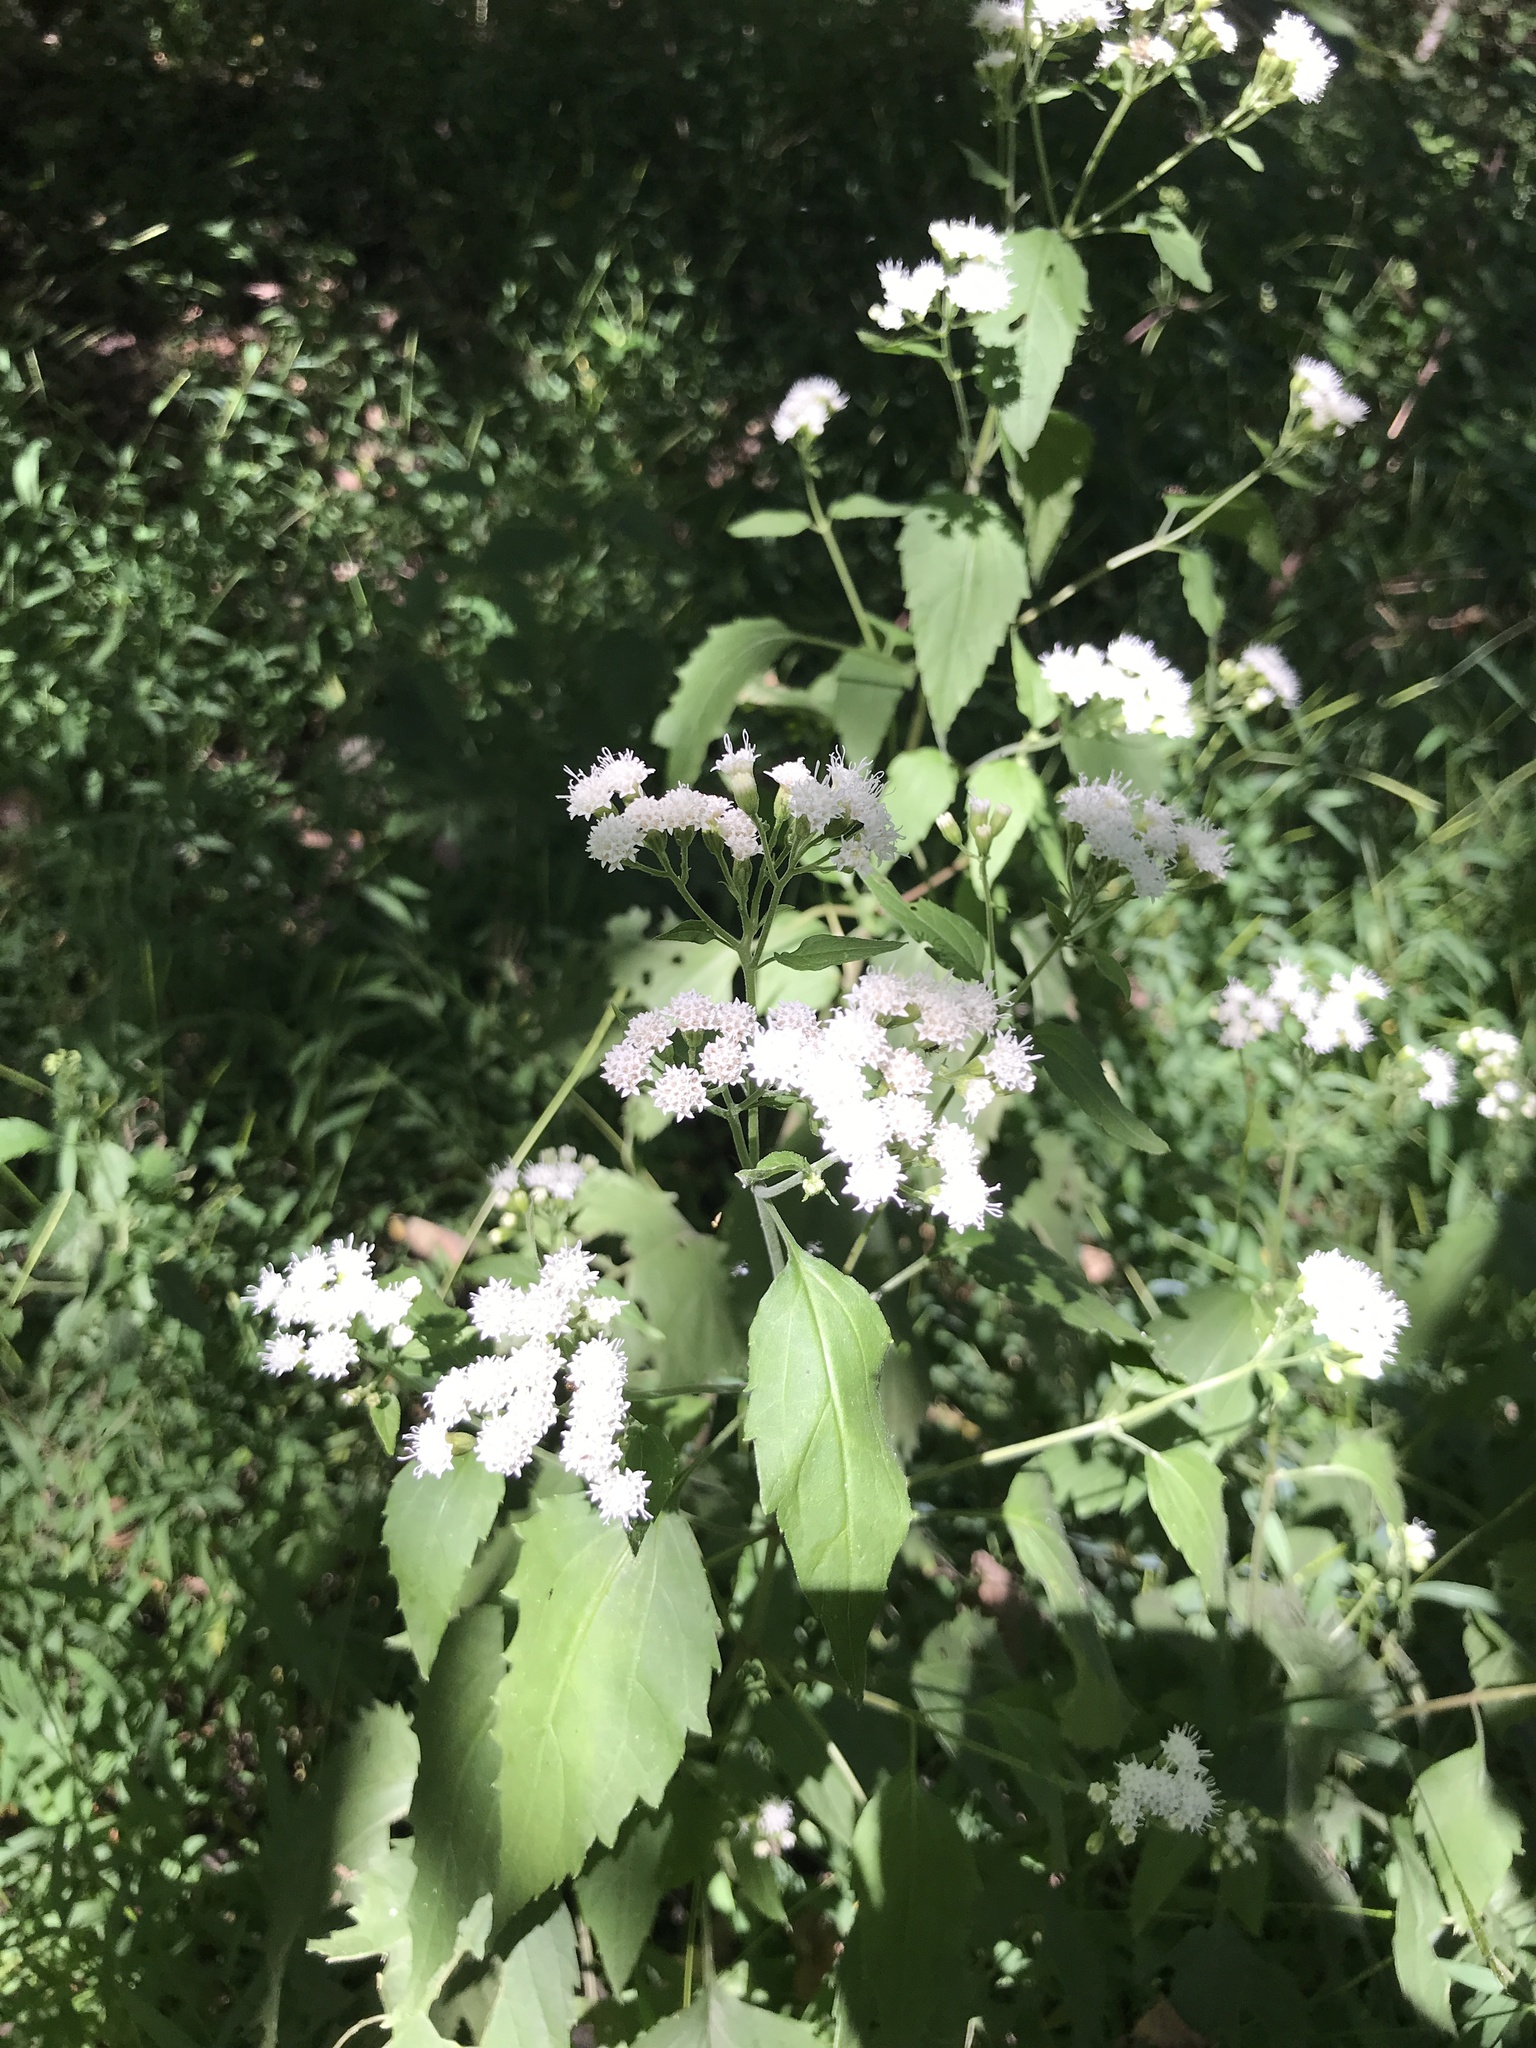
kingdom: Plantae
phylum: Tracheophyta
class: Magnoliopsida
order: Asterales
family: Asteraceae
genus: Ageratina
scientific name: Ageratina altissima
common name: White snakeroot
